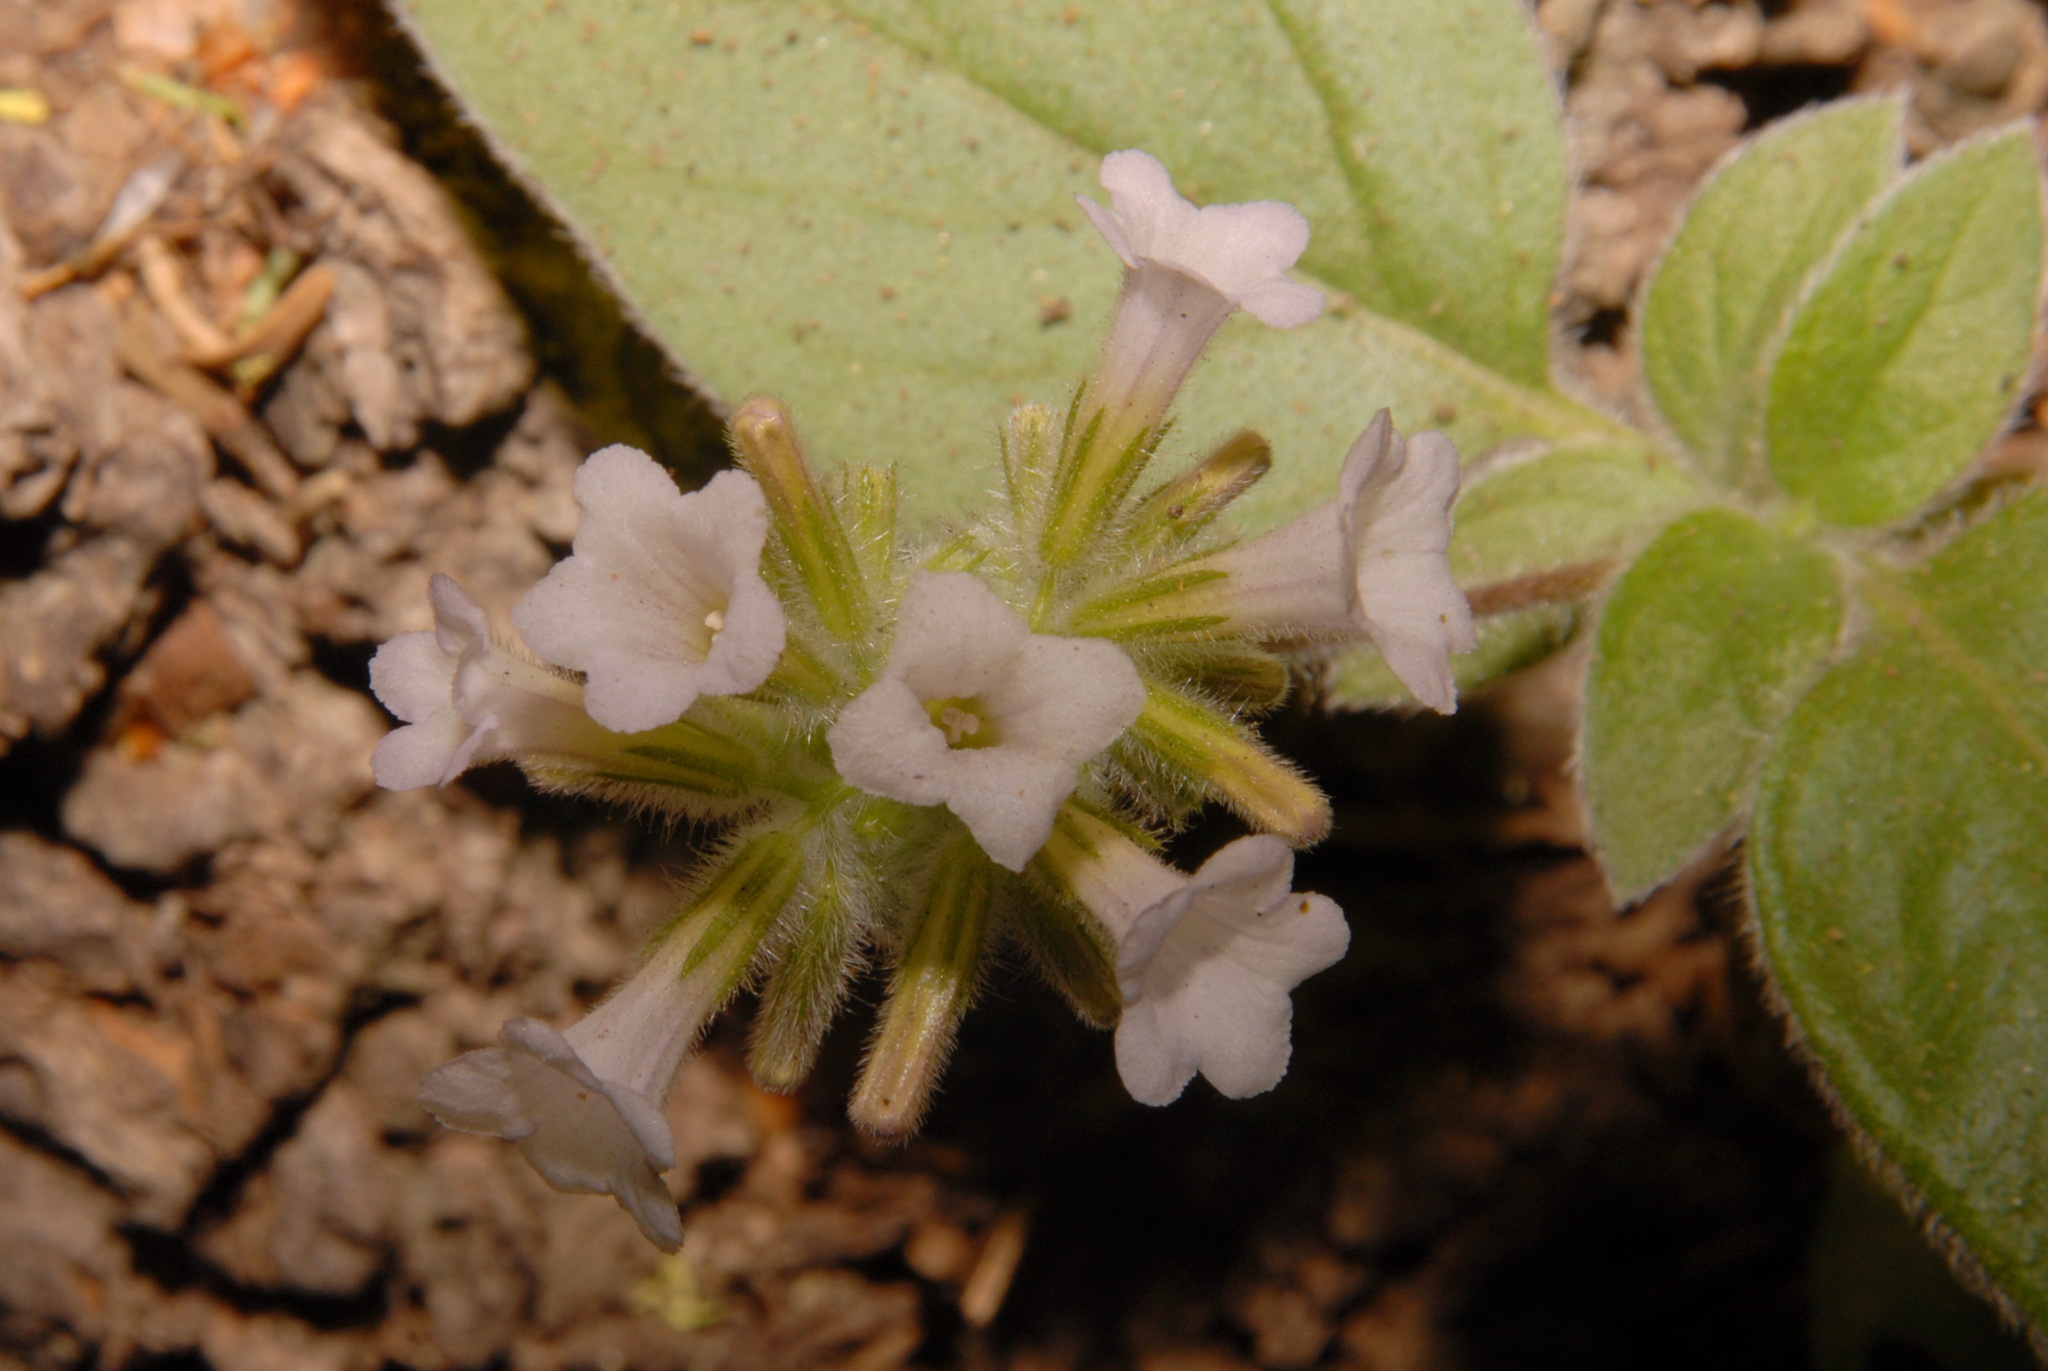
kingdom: Plantae
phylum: Tracheophyta
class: Magnoliopsida
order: Boraginales
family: Hydrophyllaceae
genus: Draperia
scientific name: Draperia systyla
